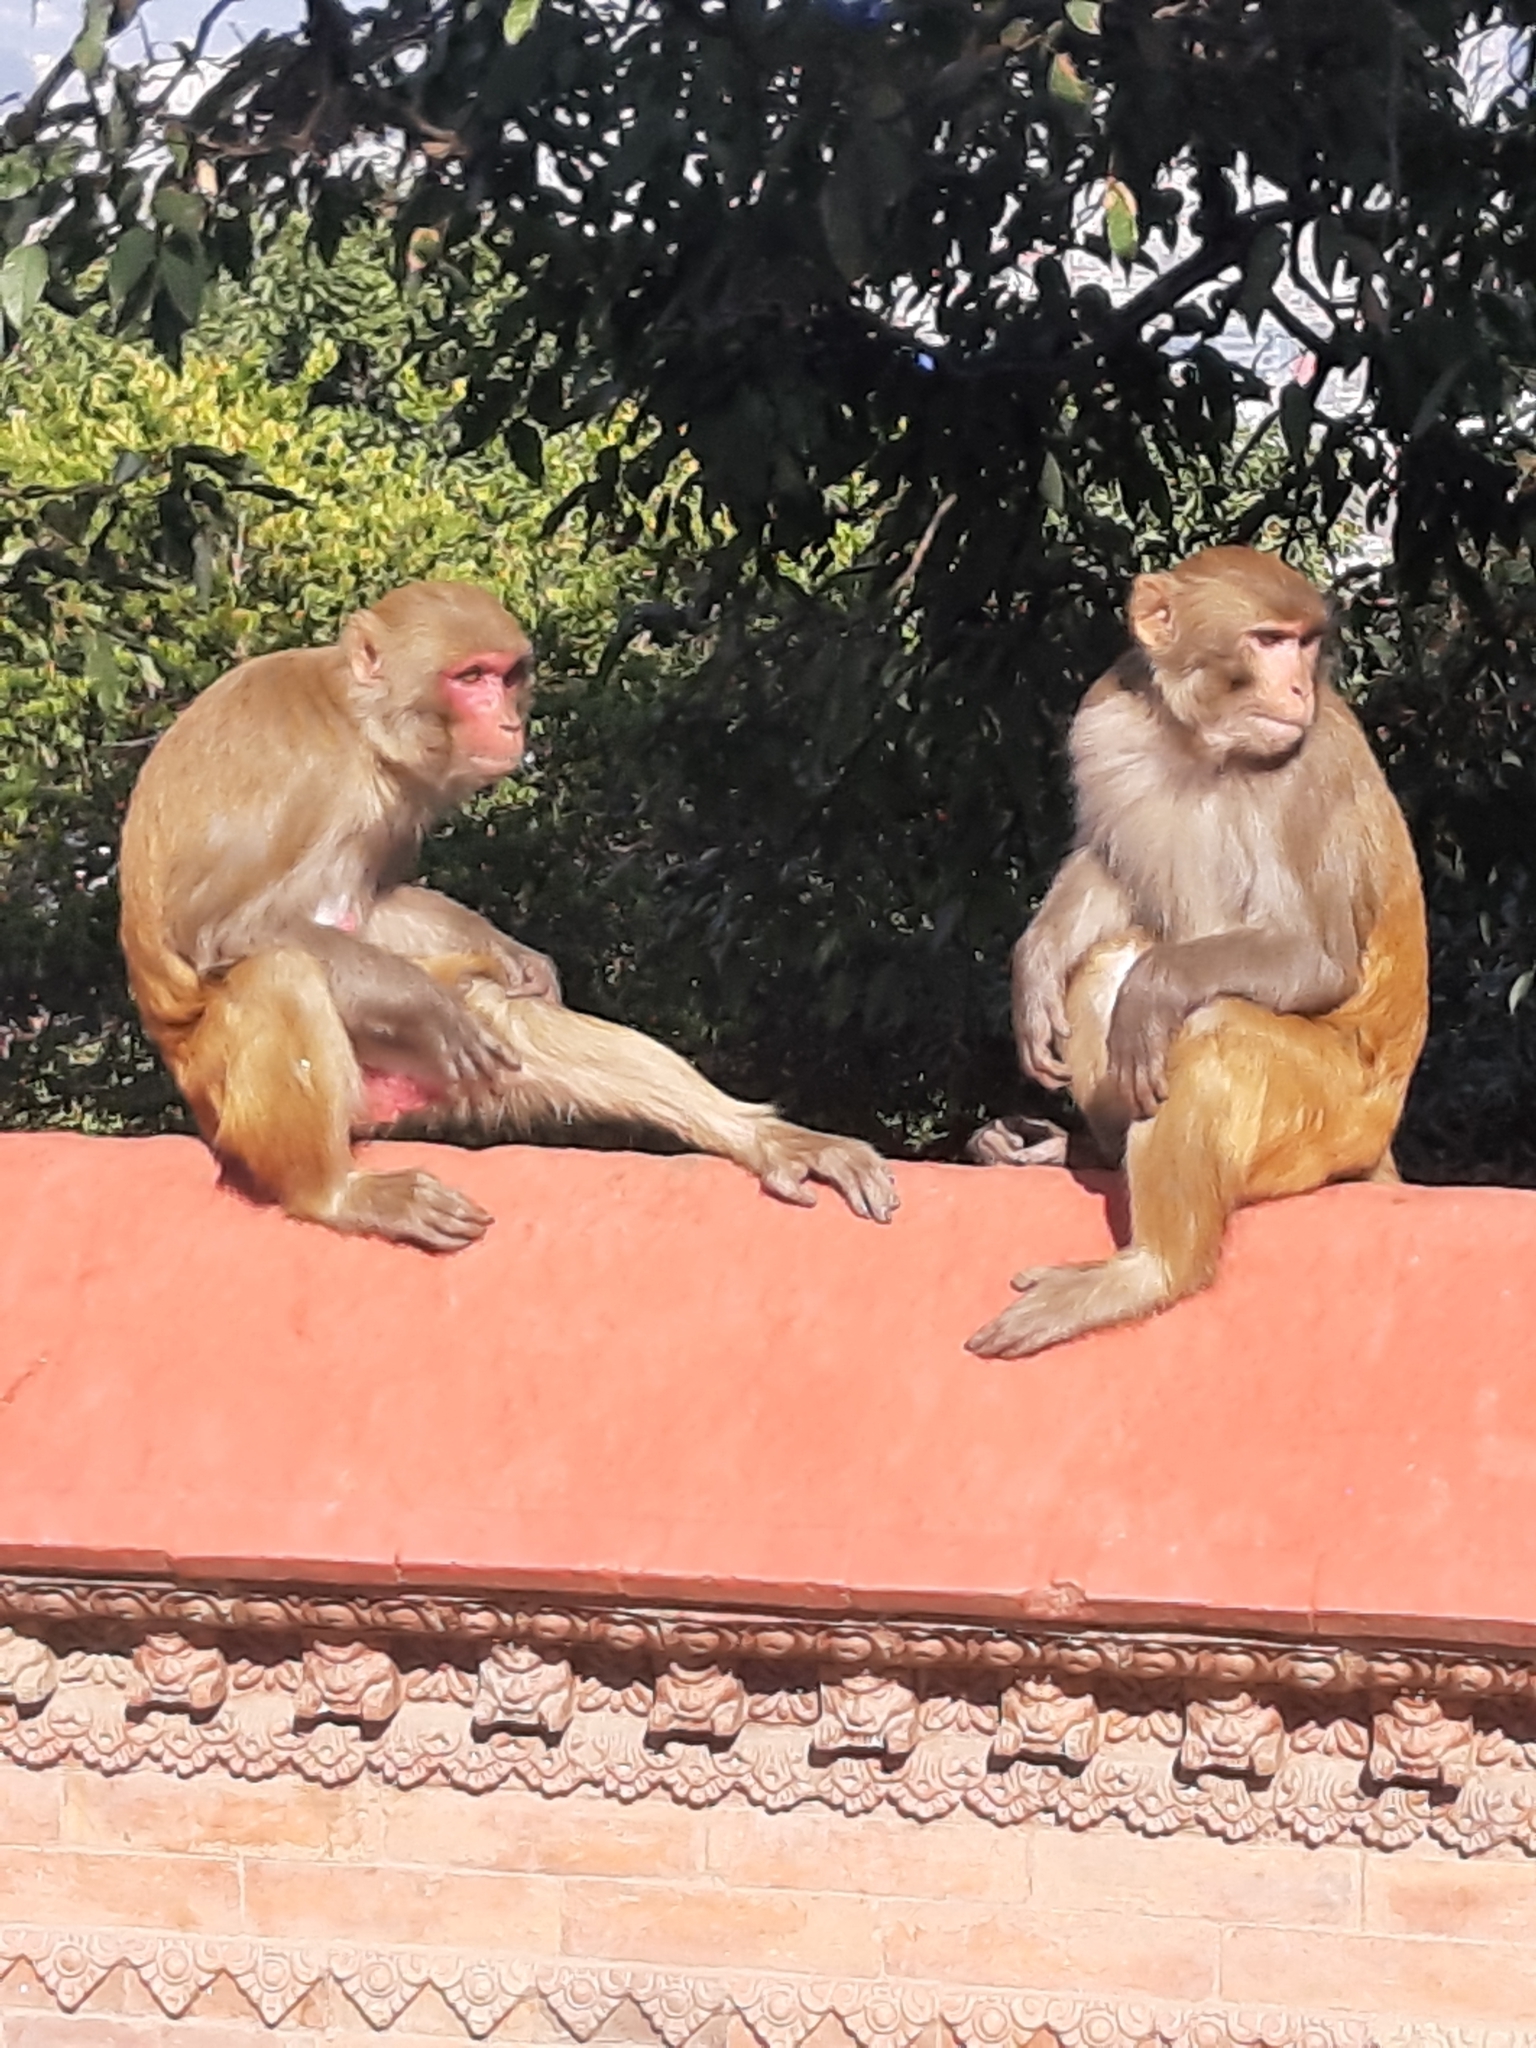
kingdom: Animalia
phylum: Chordata
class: Mammalia
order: Primates
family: Cercopithecidae
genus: Macaca
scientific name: Macaca mulatta
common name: Rhesus monkey
